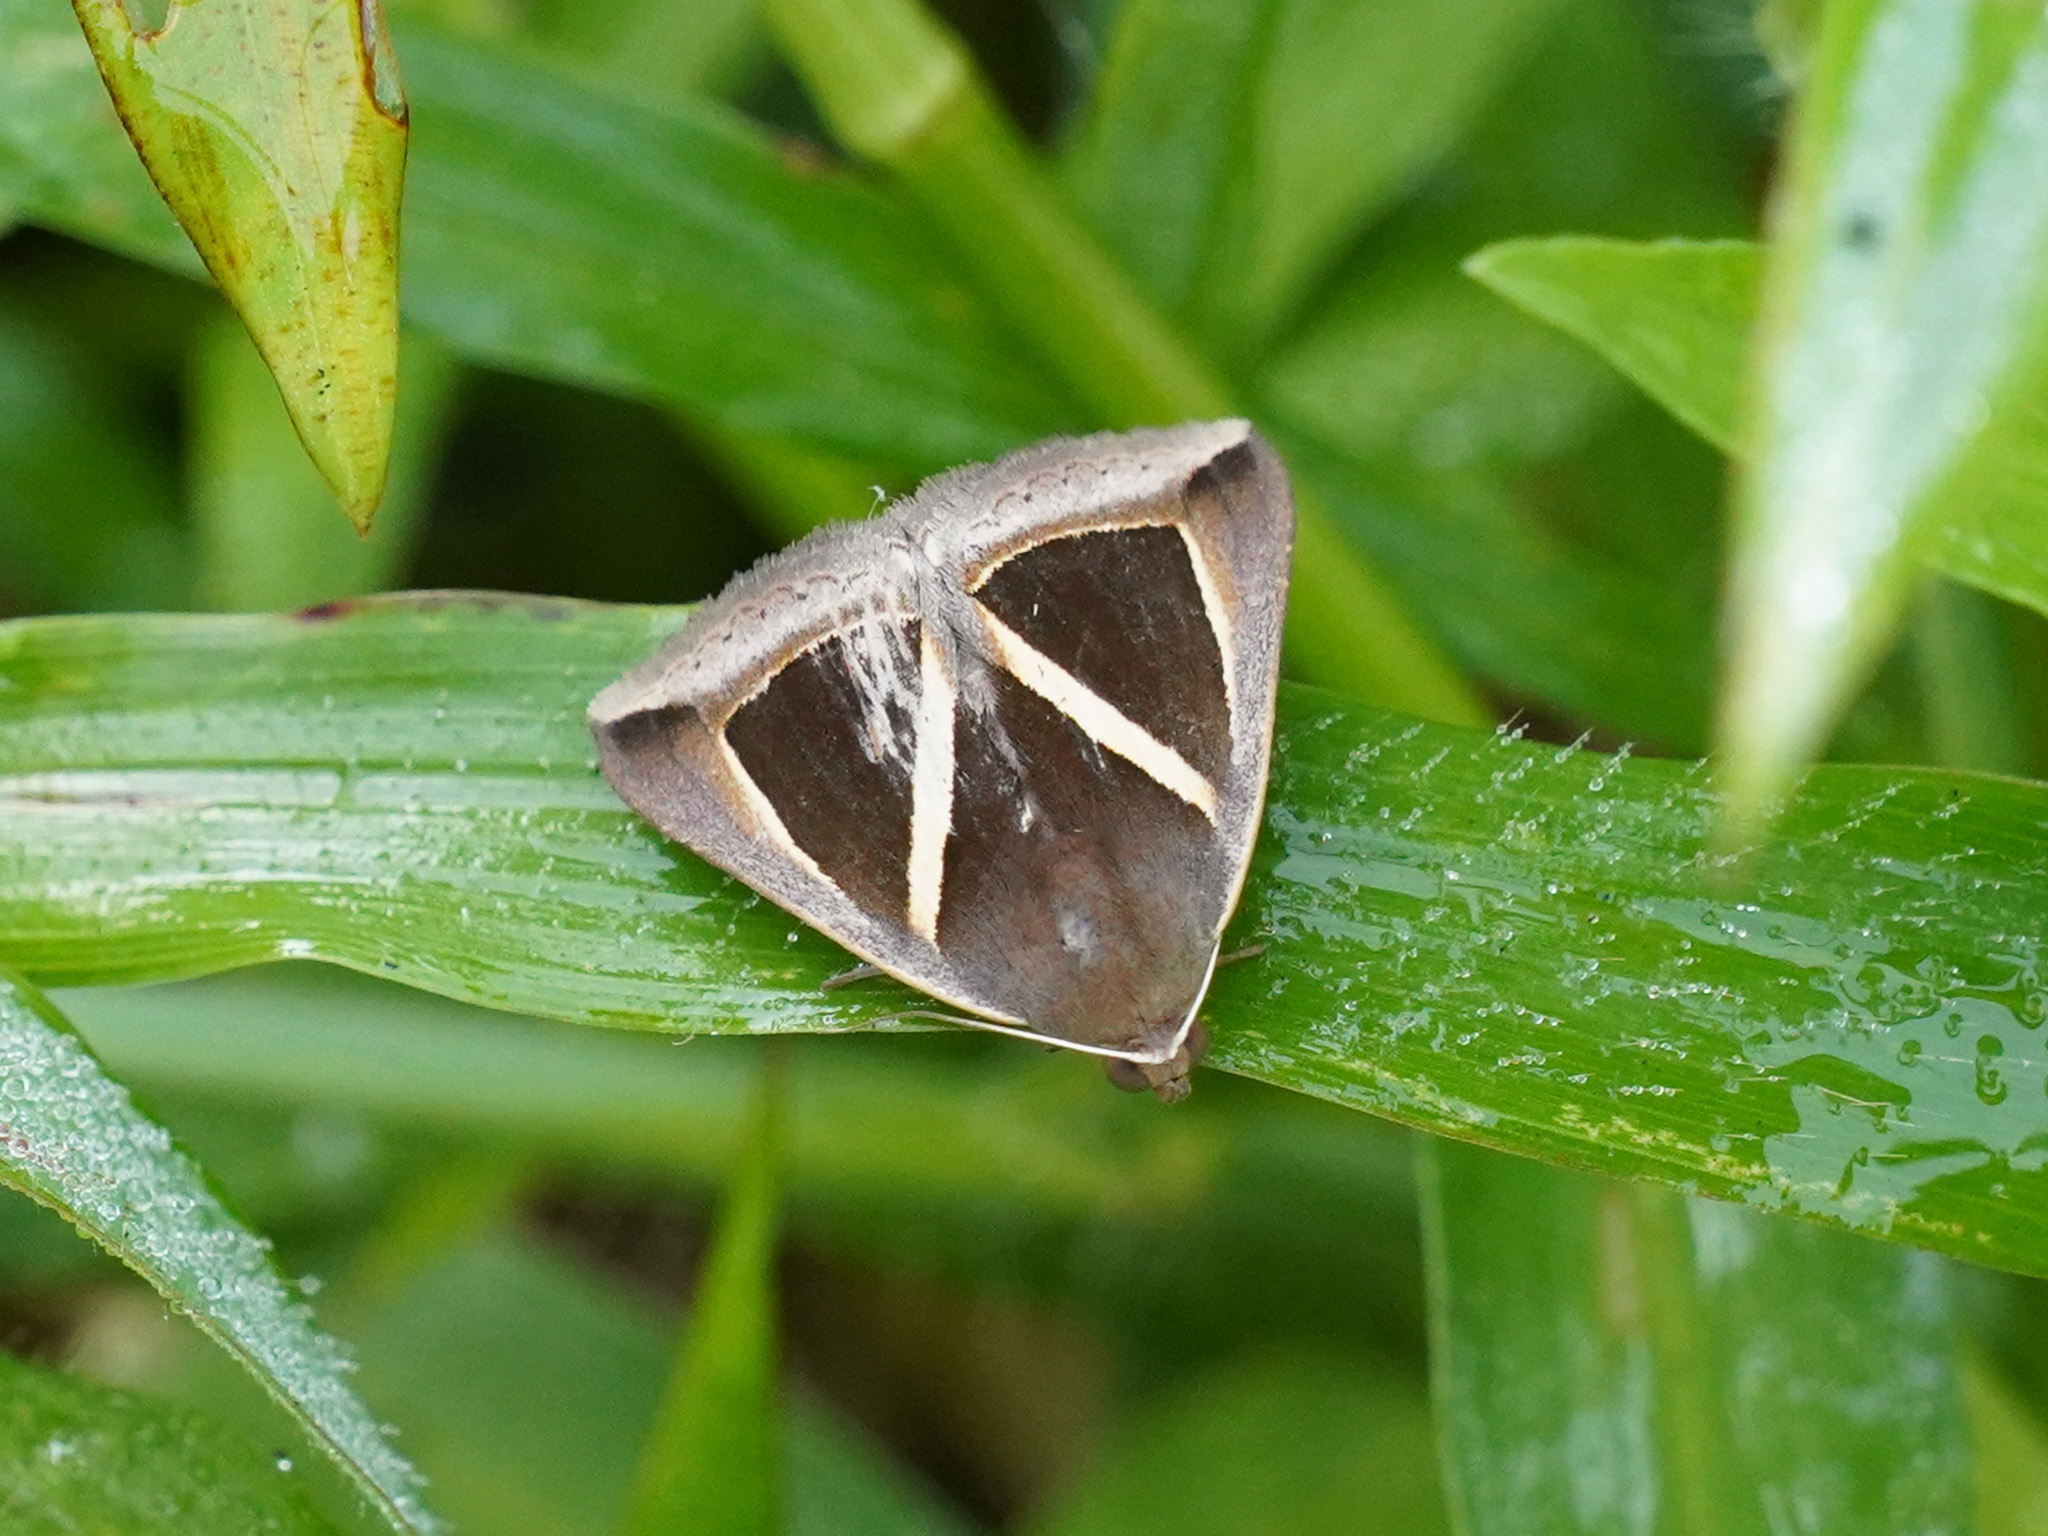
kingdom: Animalia
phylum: Arthropoda
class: Insecta
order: Lepidoptera
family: Erebidae
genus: Chalciope
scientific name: Chalciope mygdon
